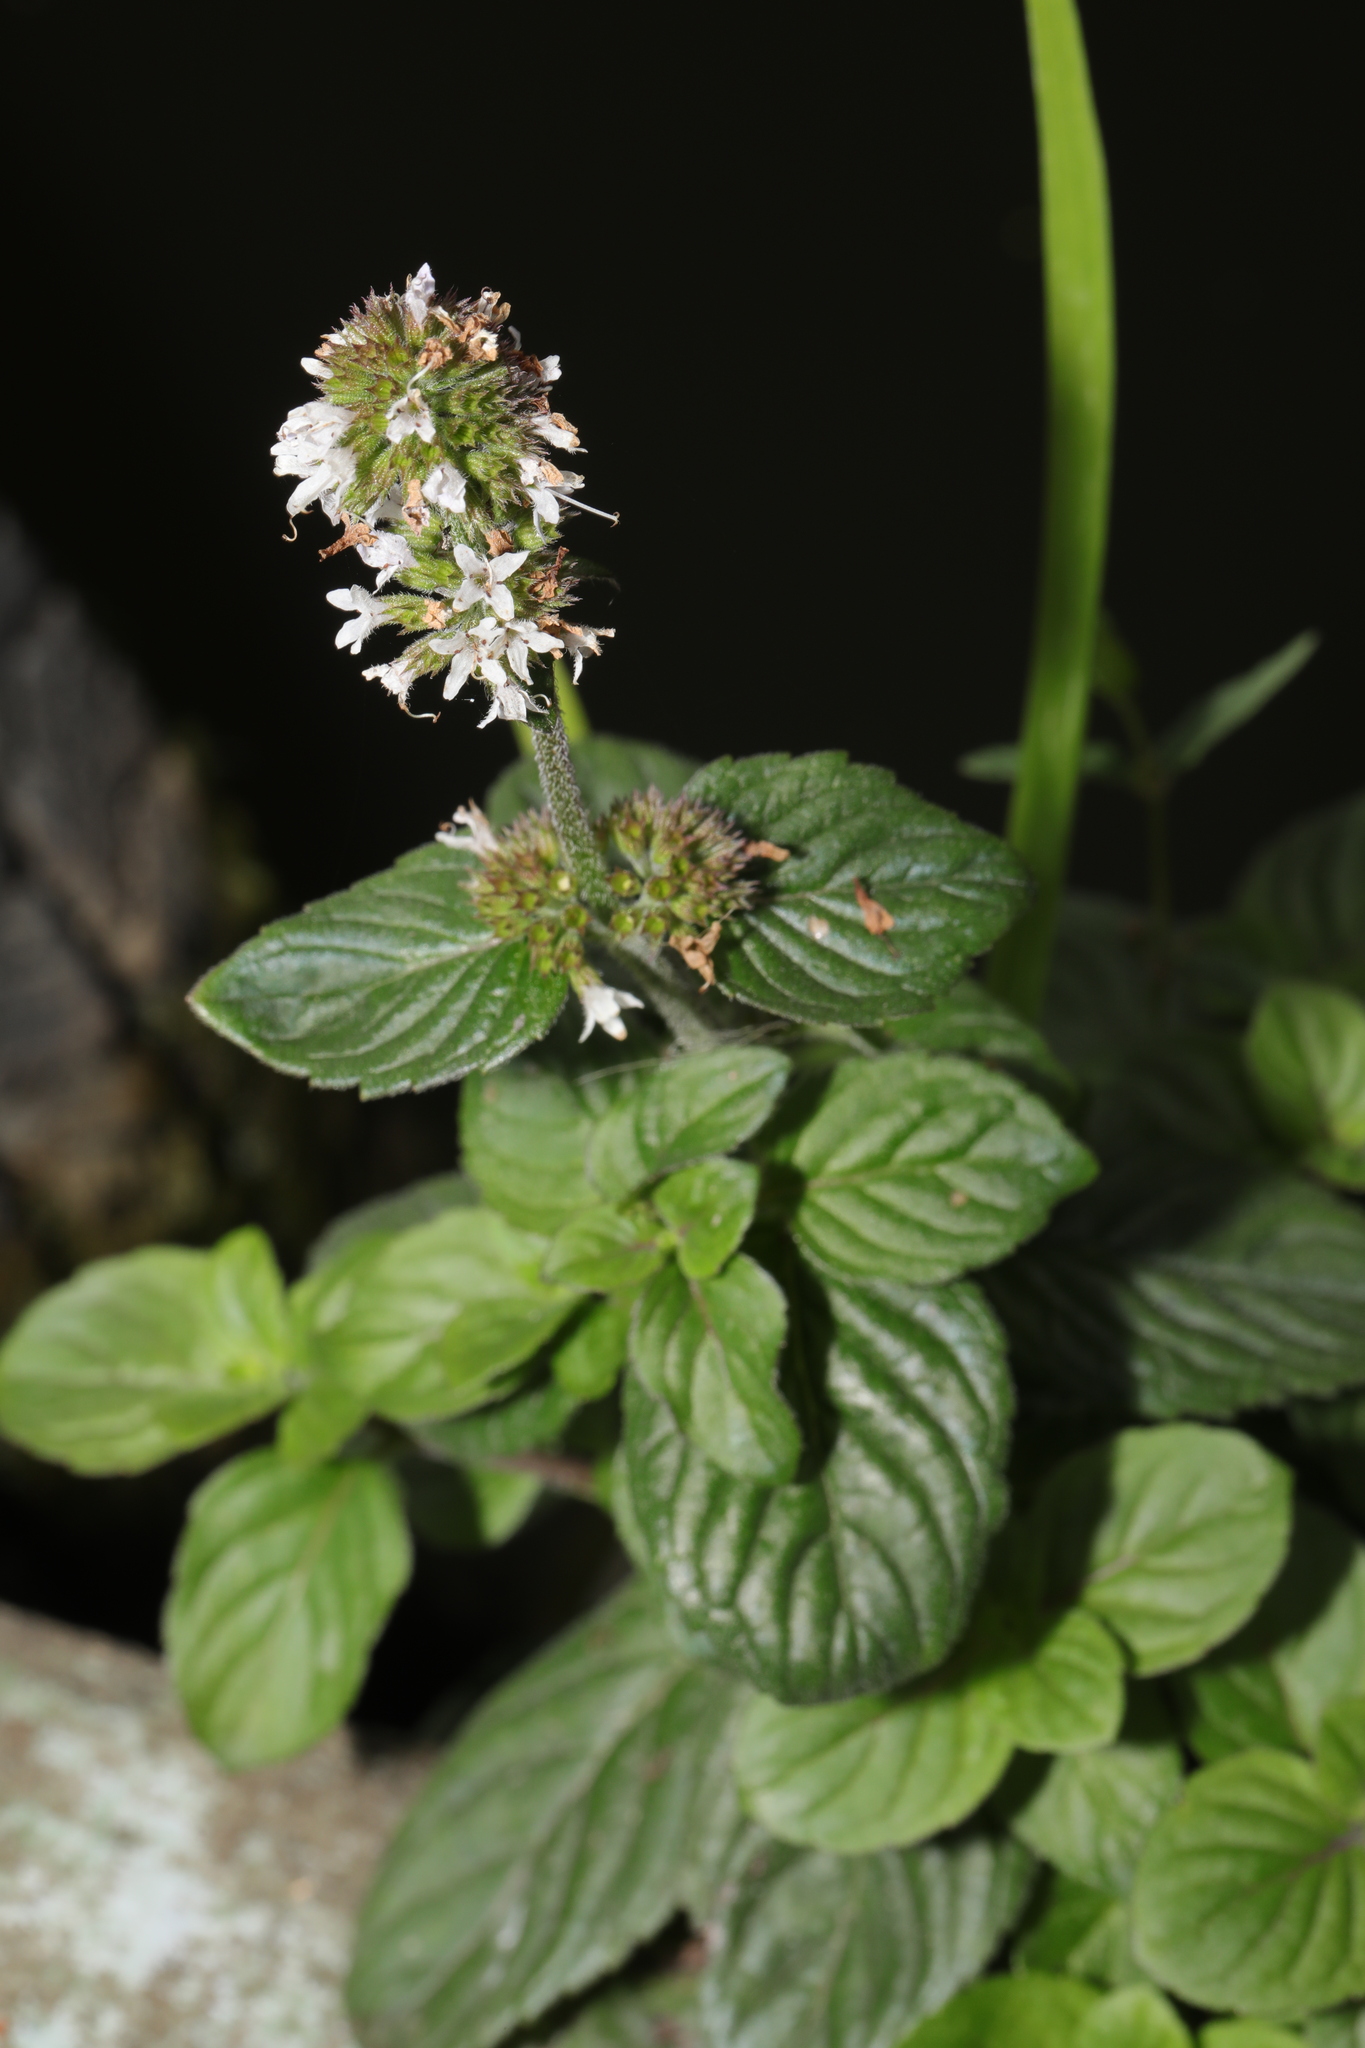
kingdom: Plantae
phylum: Tracheophyta
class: Magnoliopsida
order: Lamiales
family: Lamiaceae
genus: Mentha
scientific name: Mentha aquatica
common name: Water mint
